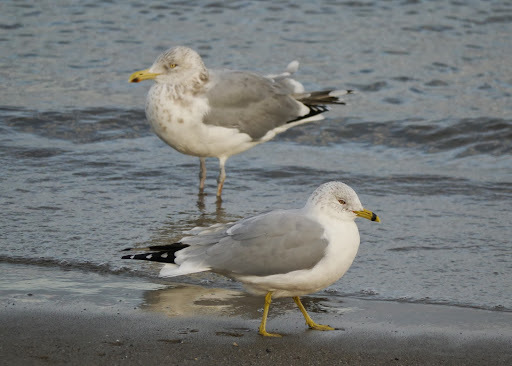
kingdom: Animalia
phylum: Chordata
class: Aves
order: Charadriiformes
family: Laridae
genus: Larus
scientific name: Larus delawarensis
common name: Ring-billed gull
